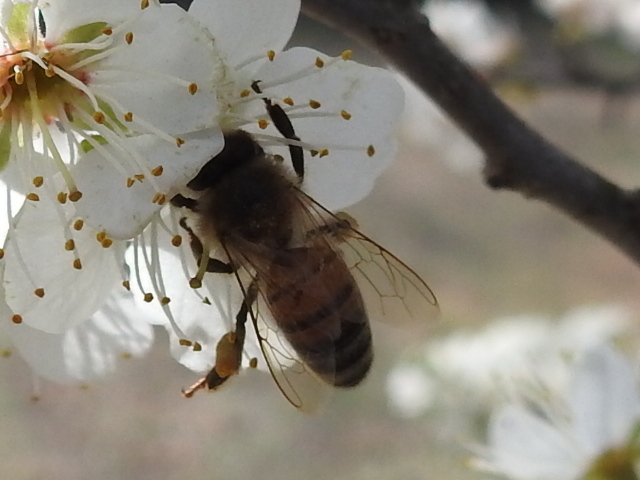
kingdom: Animalia
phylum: Arthropoda
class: Insecta
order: Hymenoptera
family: Apidae
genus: Apis
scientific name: Apis mellifera
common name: Honey bee
